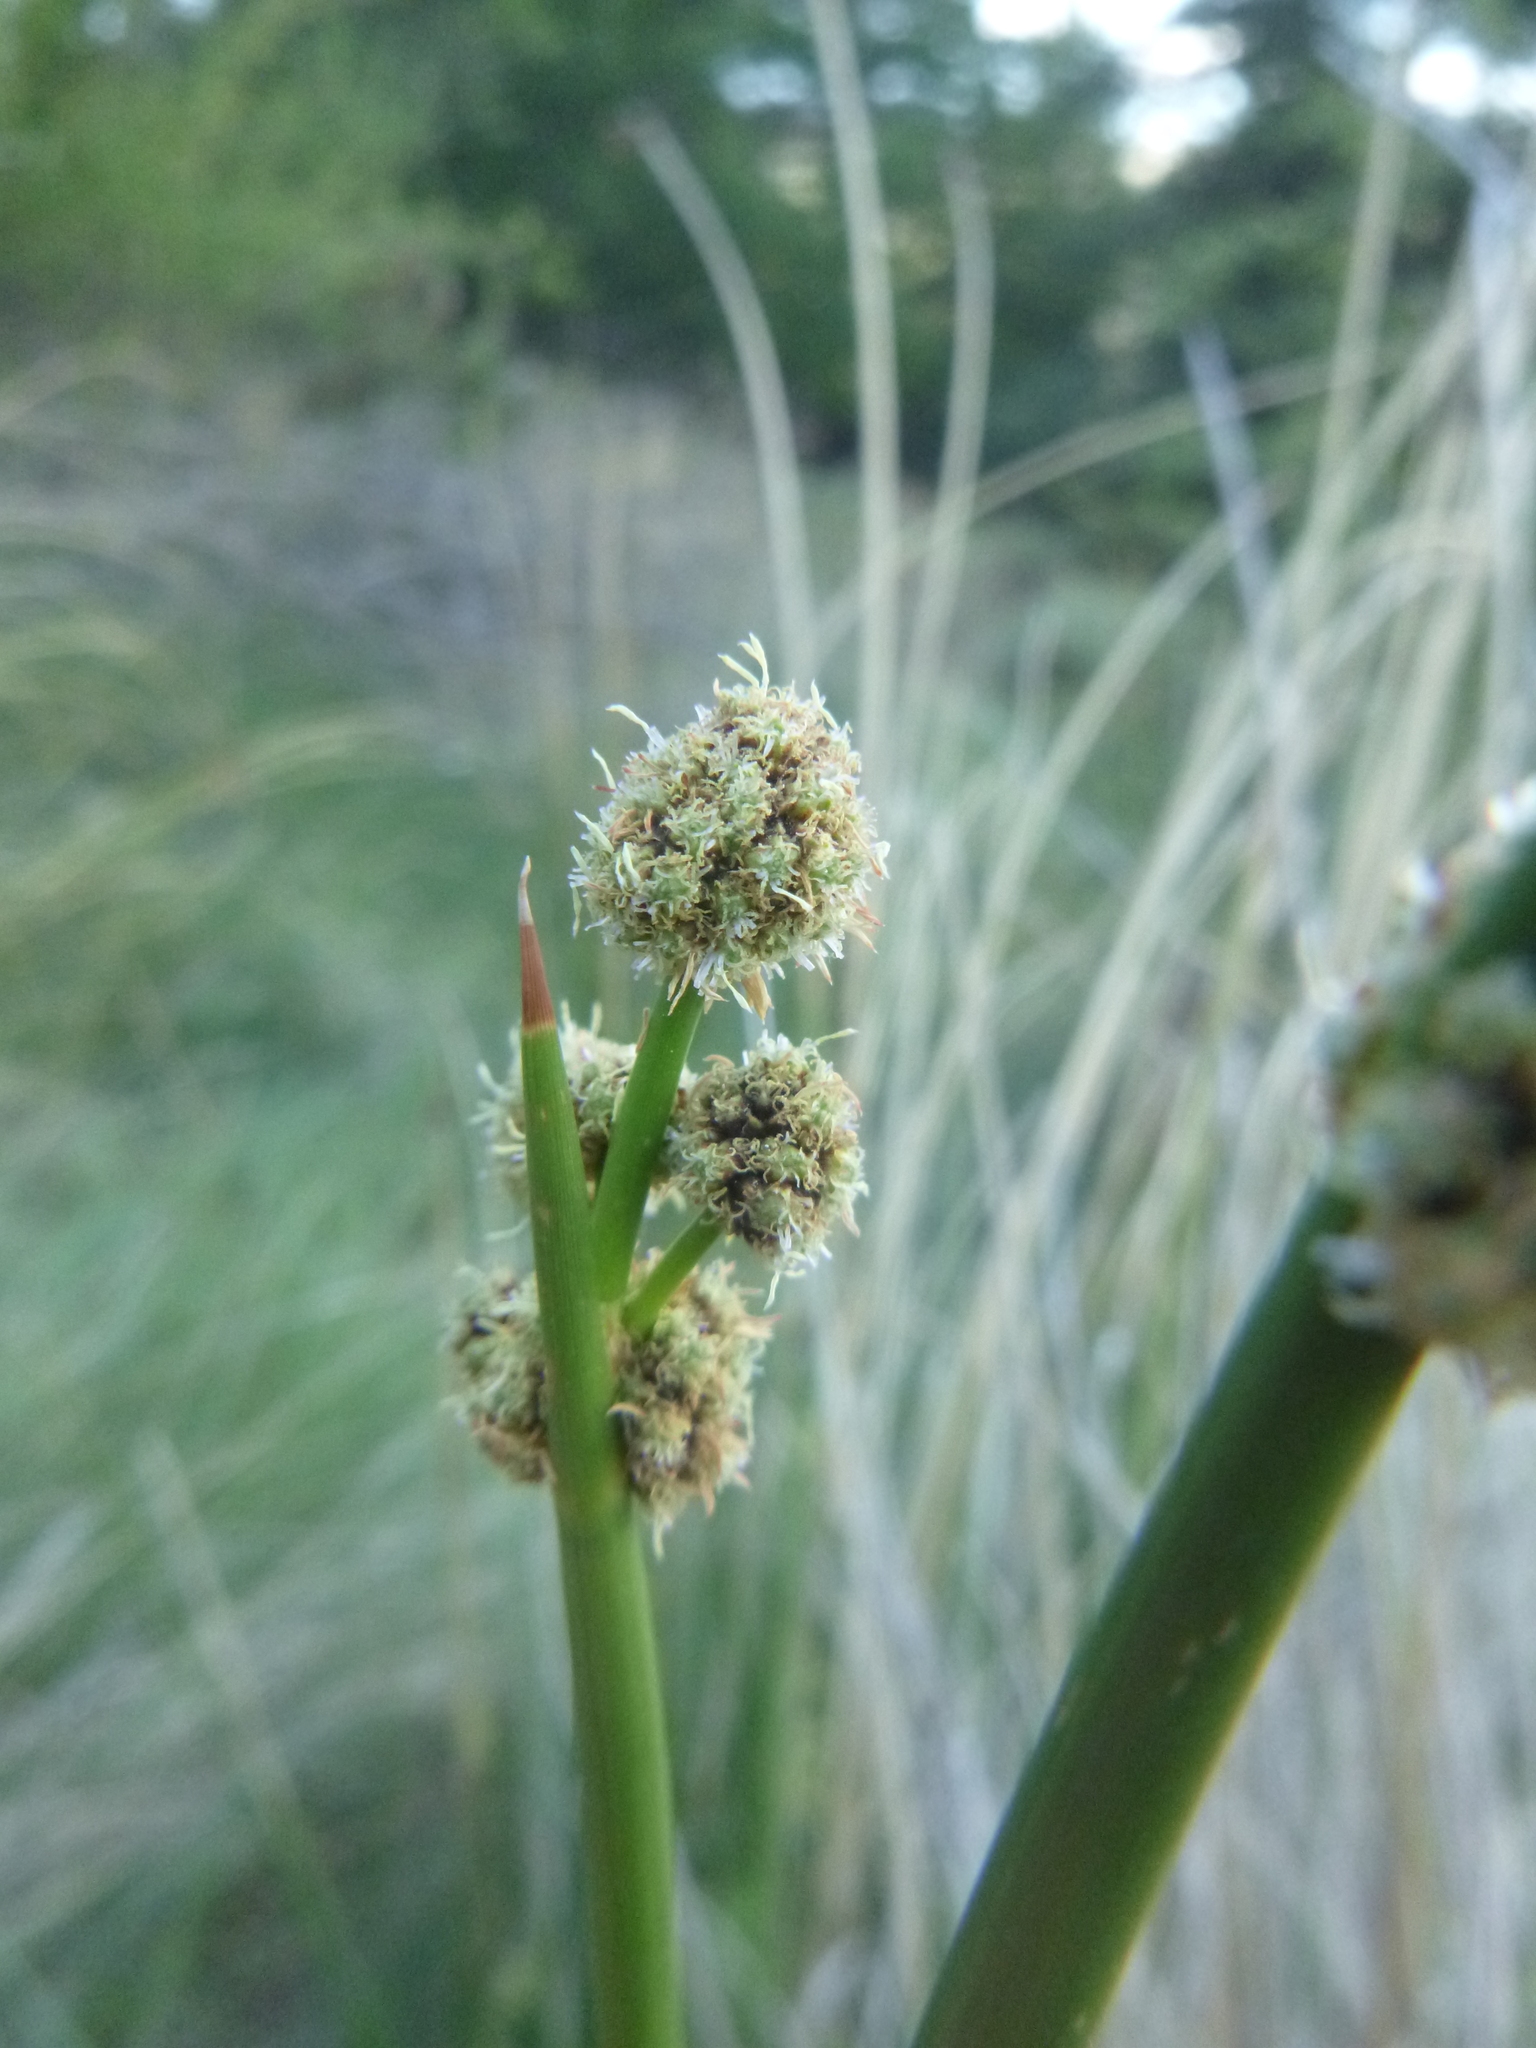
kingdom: Plantae
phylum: Tracheophyta
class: Liliopsida
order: Poales
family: Cyperaceae
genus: Scirpoides
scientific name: Scirpoides holoschoenus
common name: Round-headed club-rush
